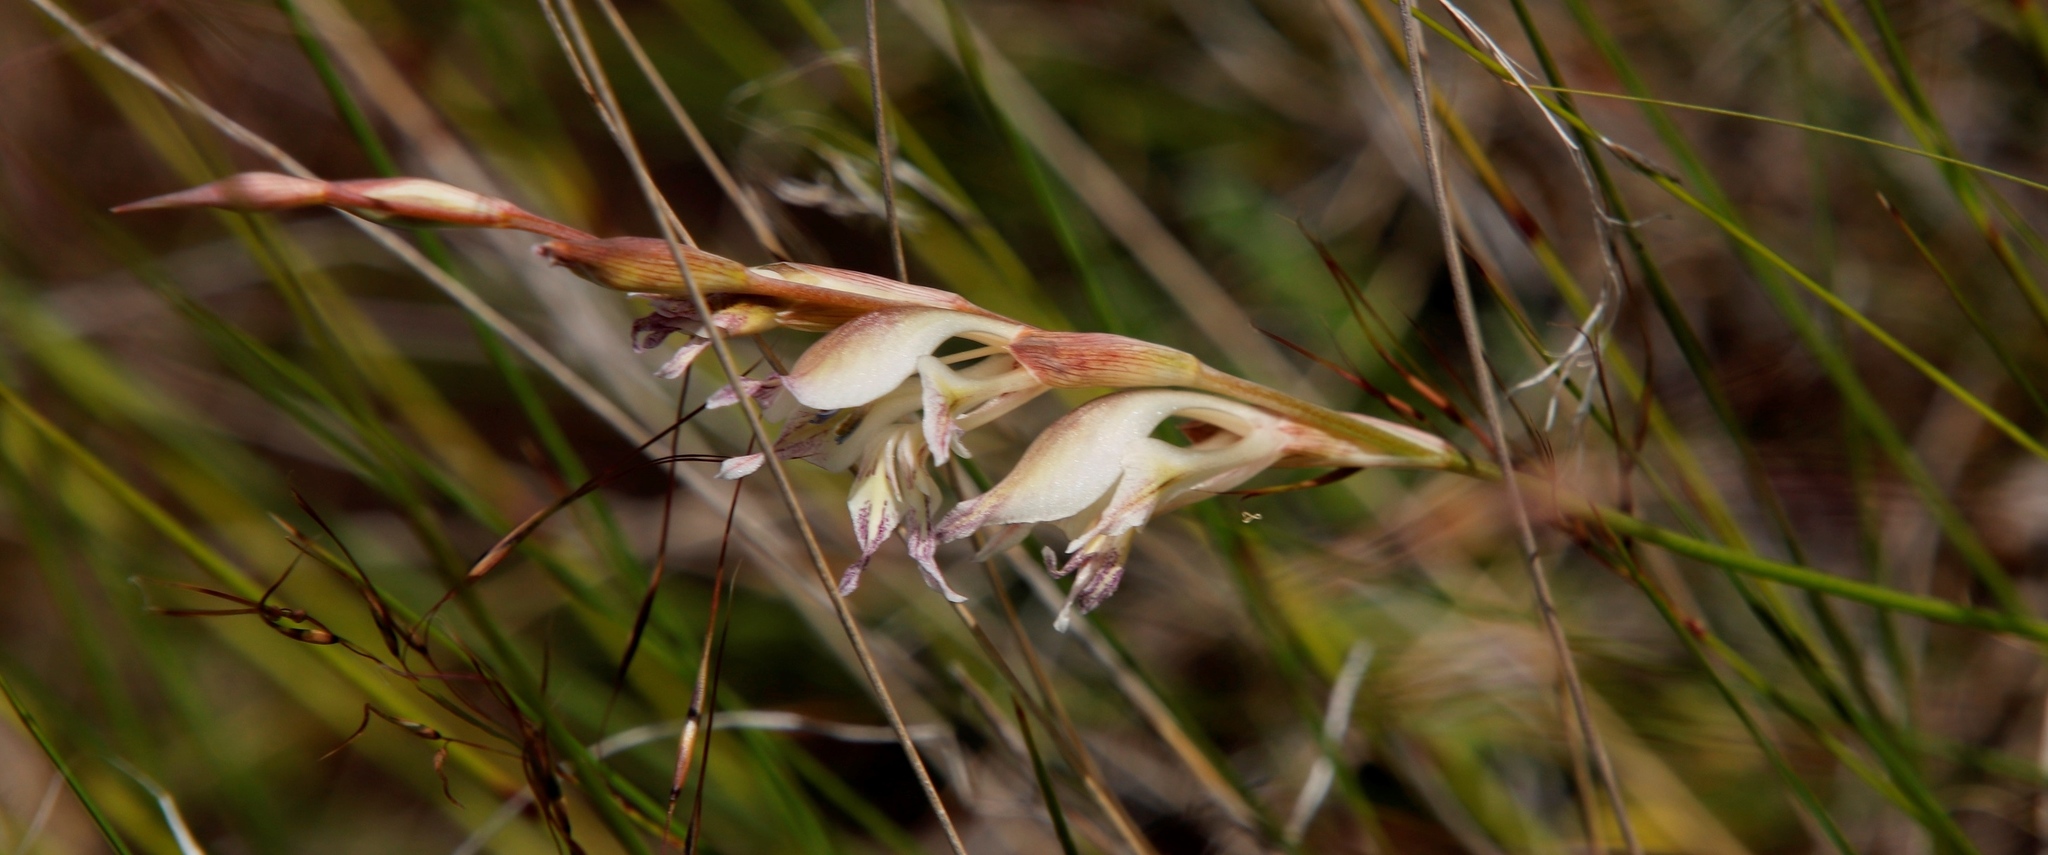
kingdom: Plantae
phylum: Tracheophyta
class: Liliopsida
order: Asparagales
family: Iridaceae
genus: Gladiolus
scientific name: Gladiolus permeabilis
